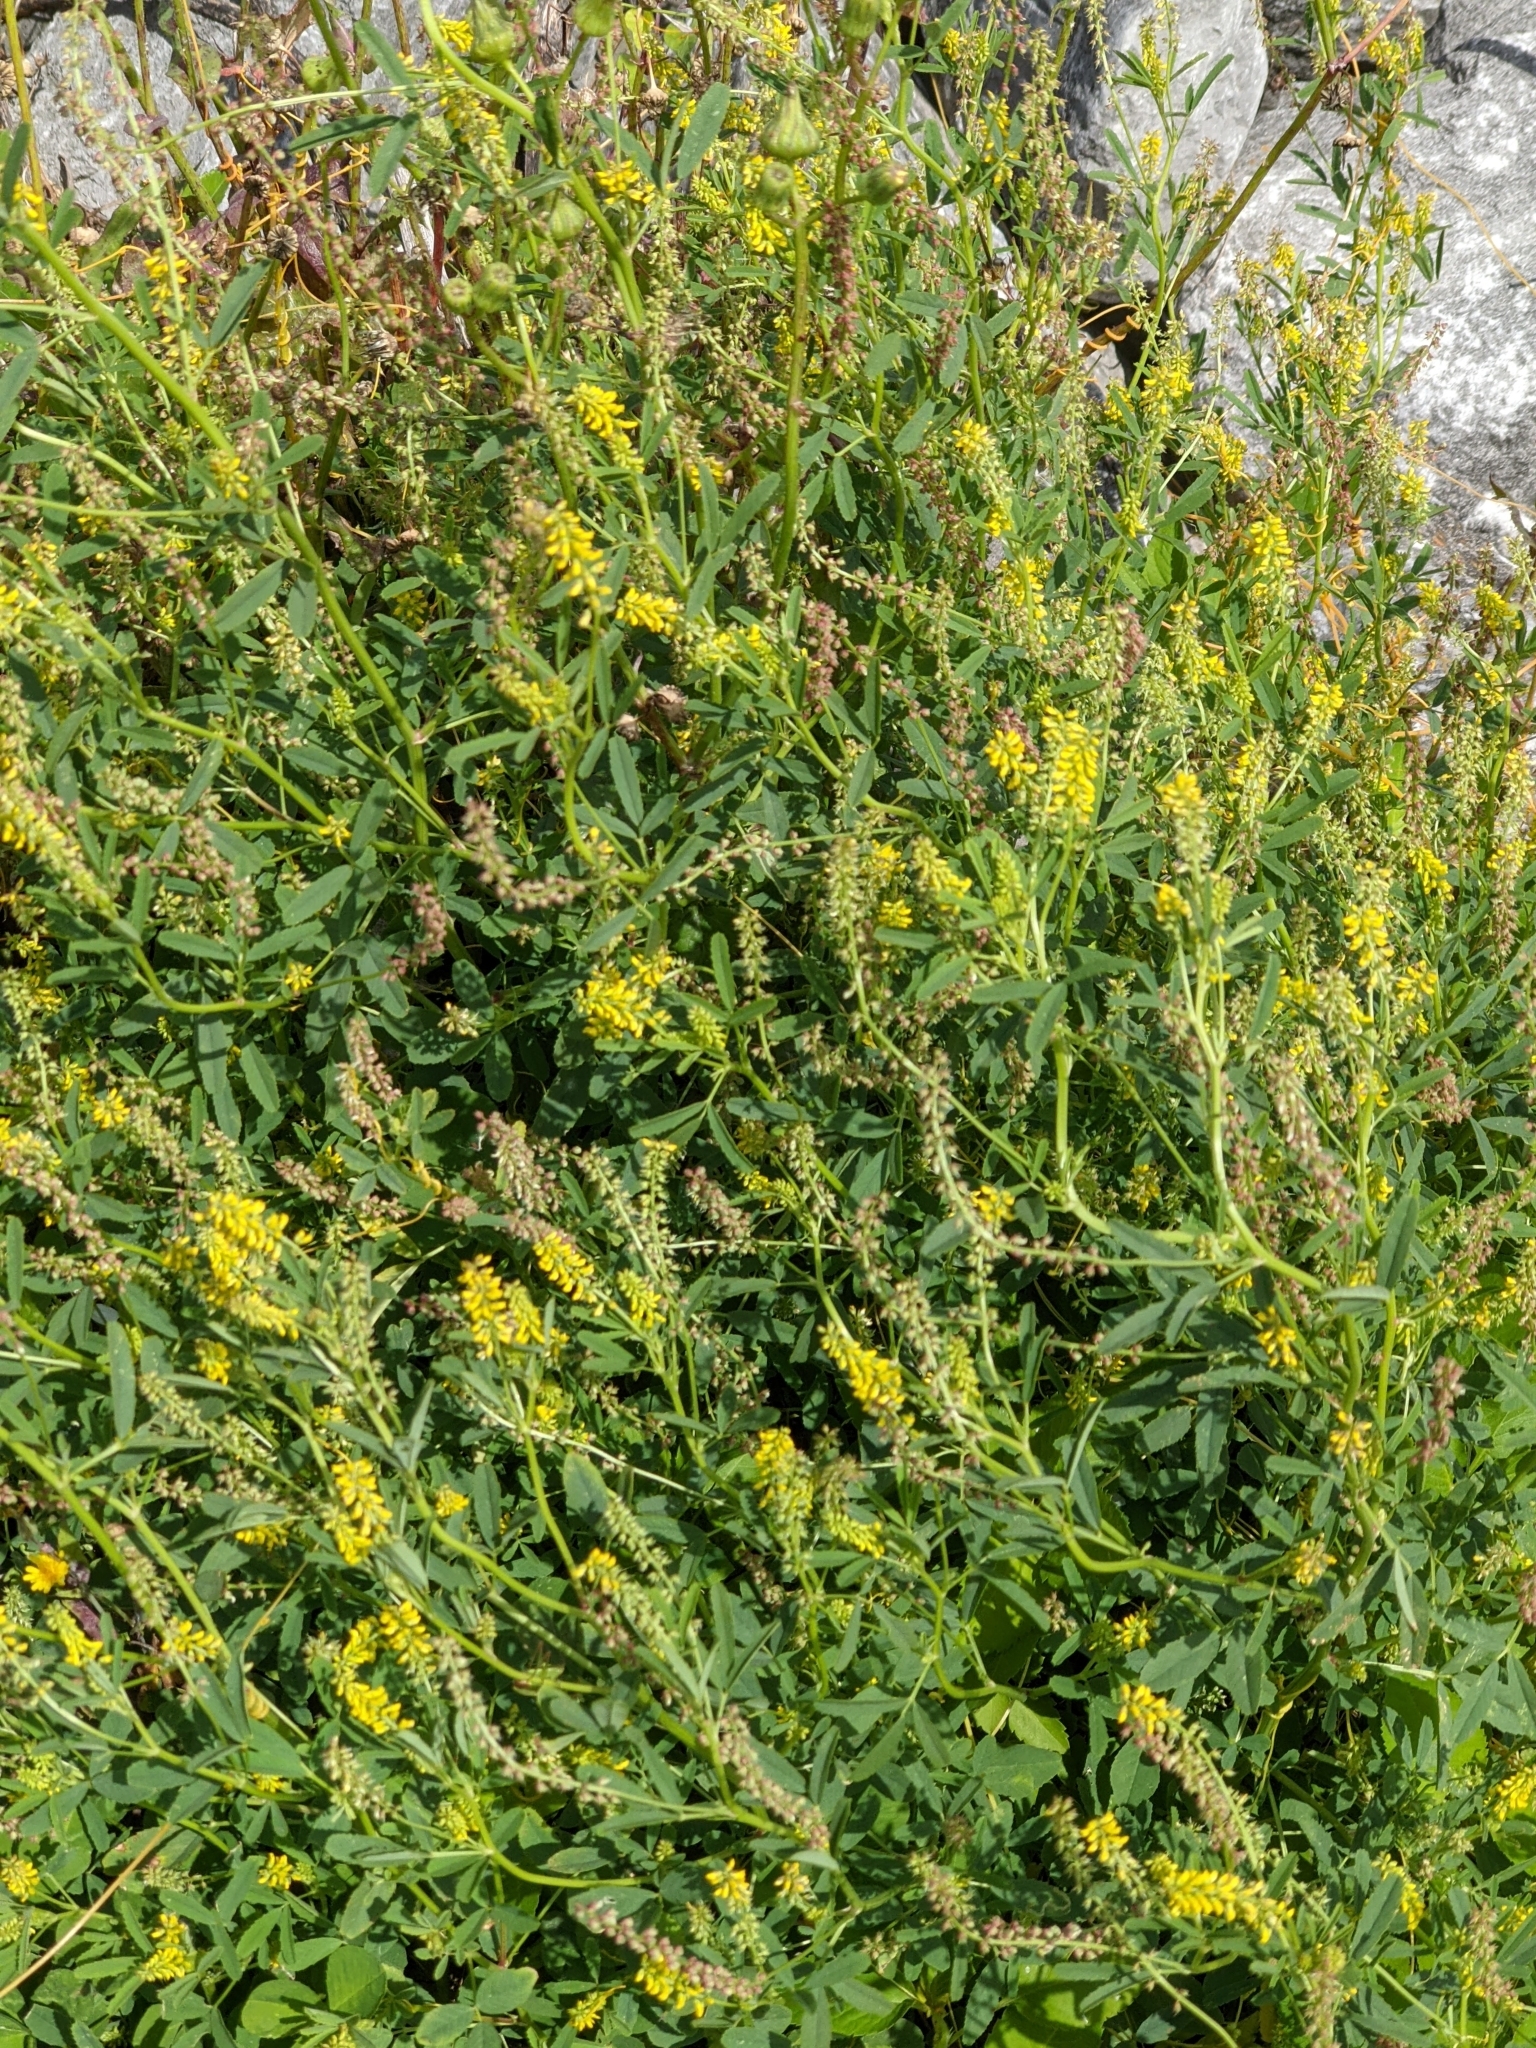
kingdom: Plantae
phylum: Tracheophyta
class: Magnoliopsida
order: Fabales
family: Fabaceae
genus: Melilotus
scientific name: Melilotus indicus
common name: Small melilot
